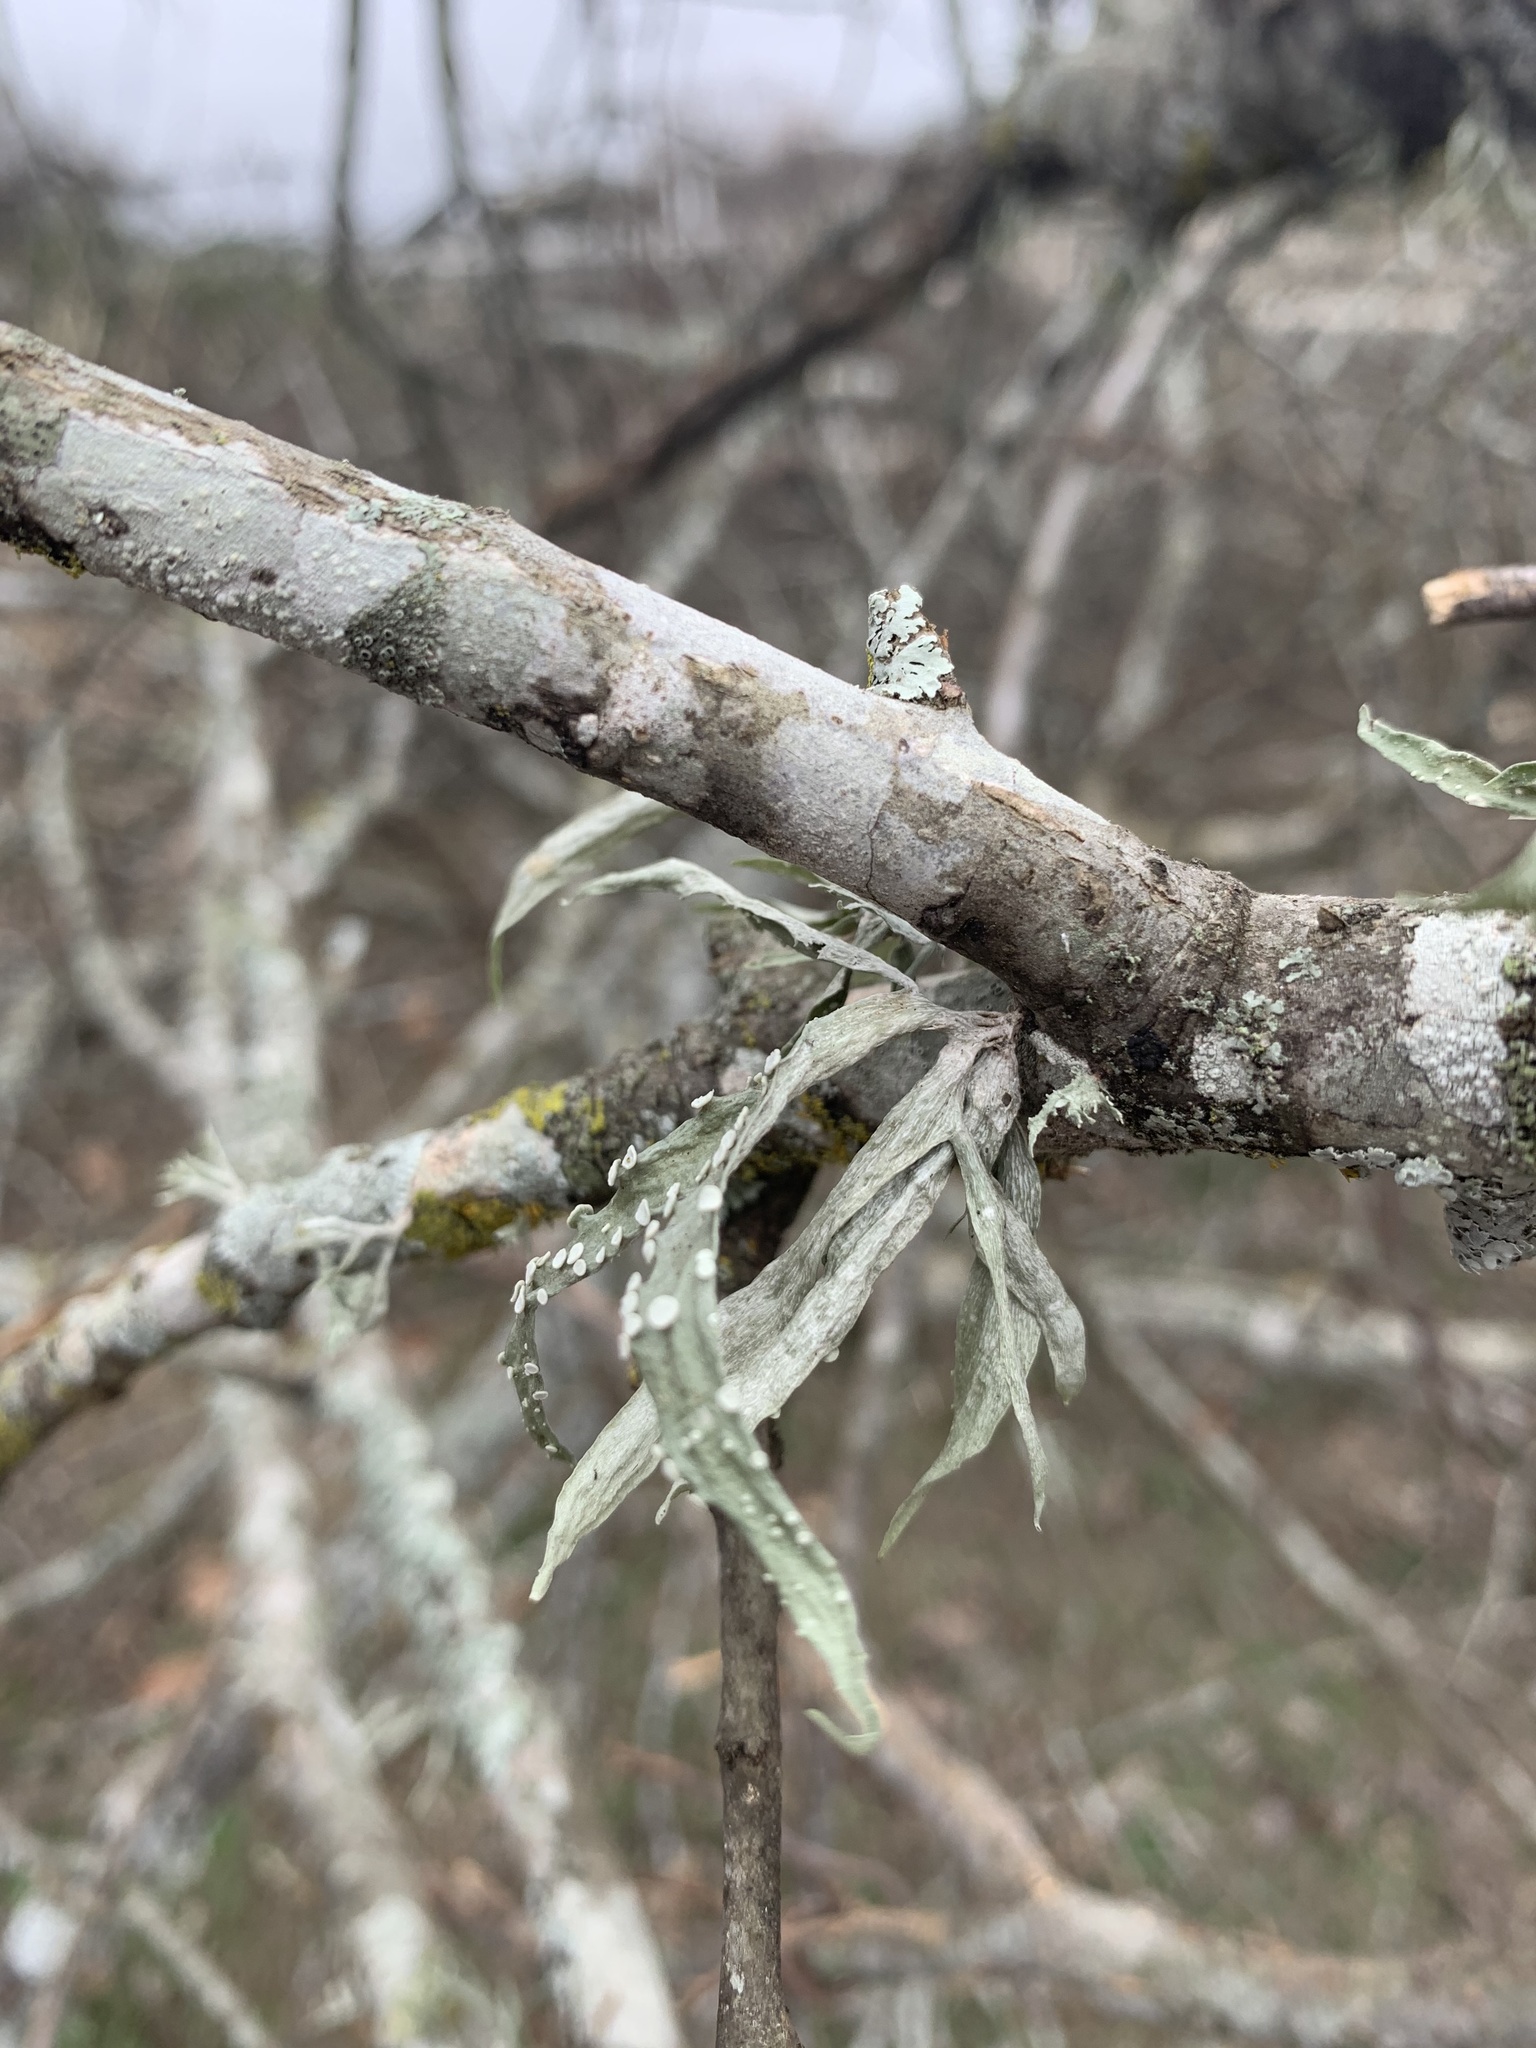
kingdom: Fungi
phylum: Ascomycota
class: Lecanoromycetes
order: Lecanorales
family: Ramalinaceae
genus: Ramalina
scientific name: Ramalina celastri
